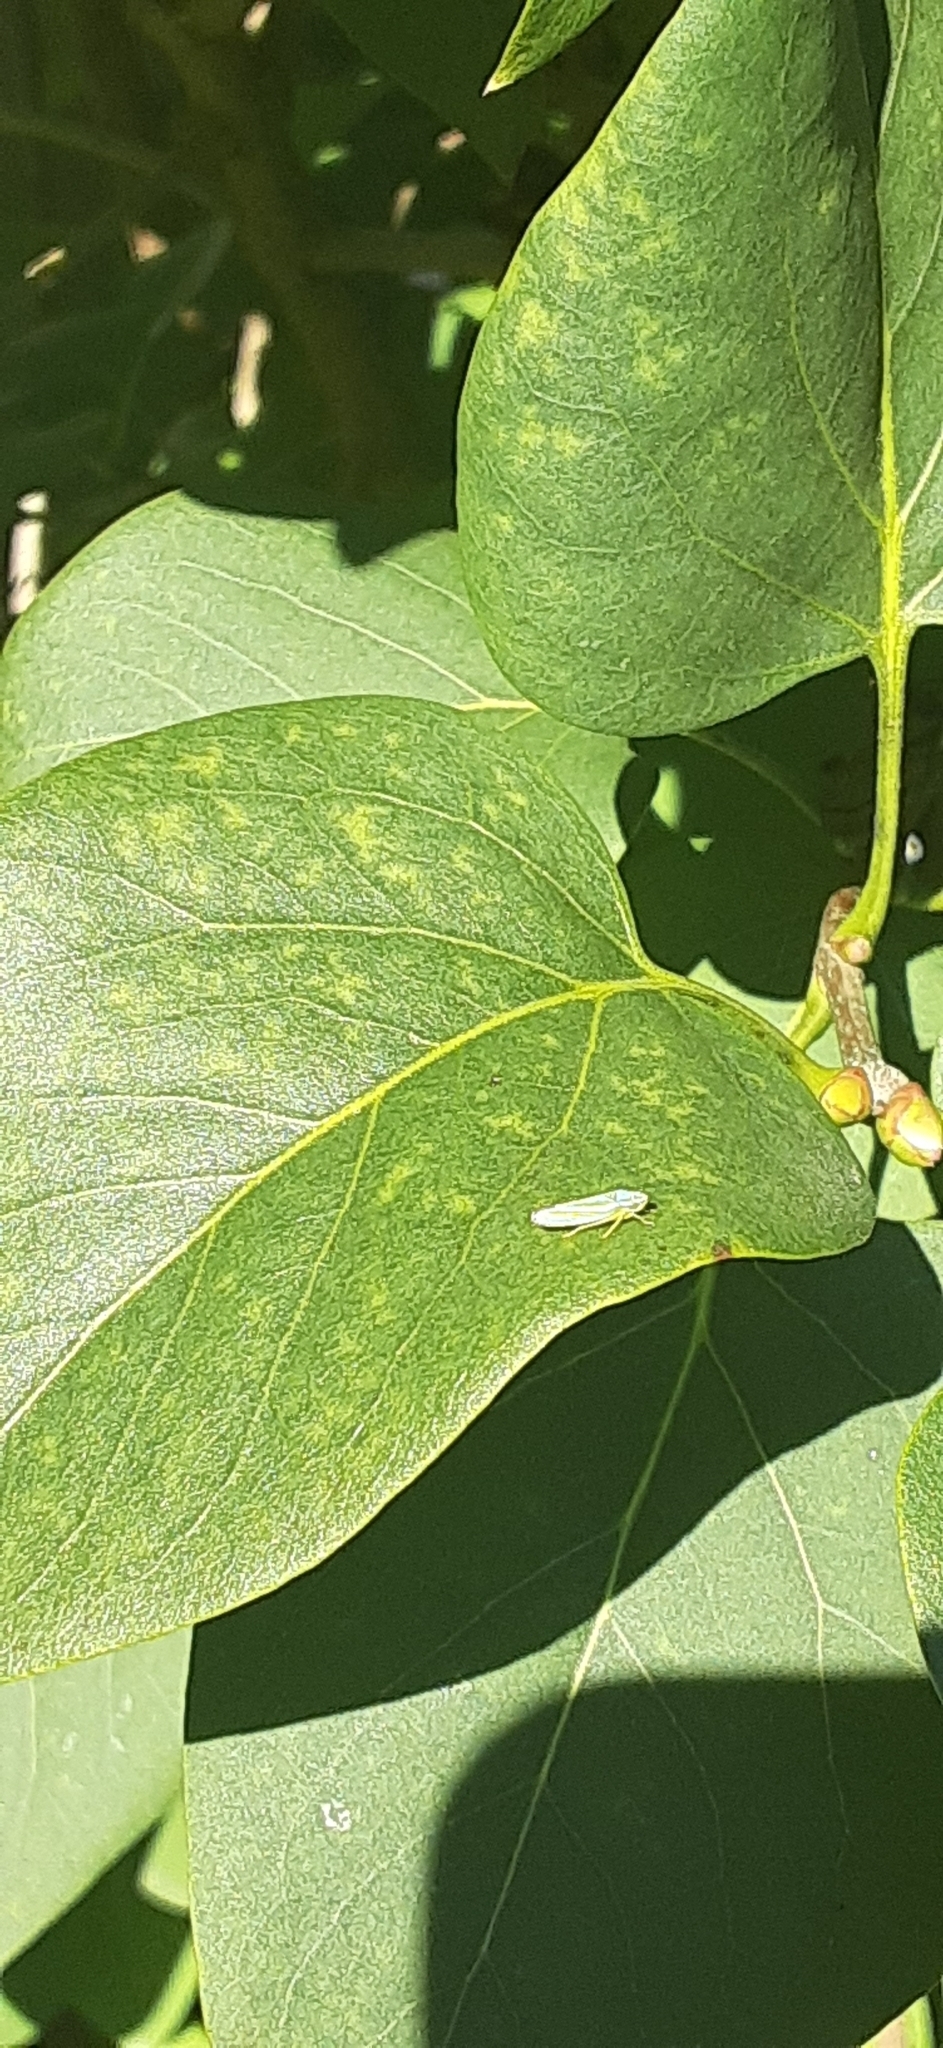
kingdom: Animalia
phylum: Arthropoda
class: Insecta
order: Hemiptera
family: Cicadellidae
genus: Graphocephala
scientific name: Graphocephala versuta
